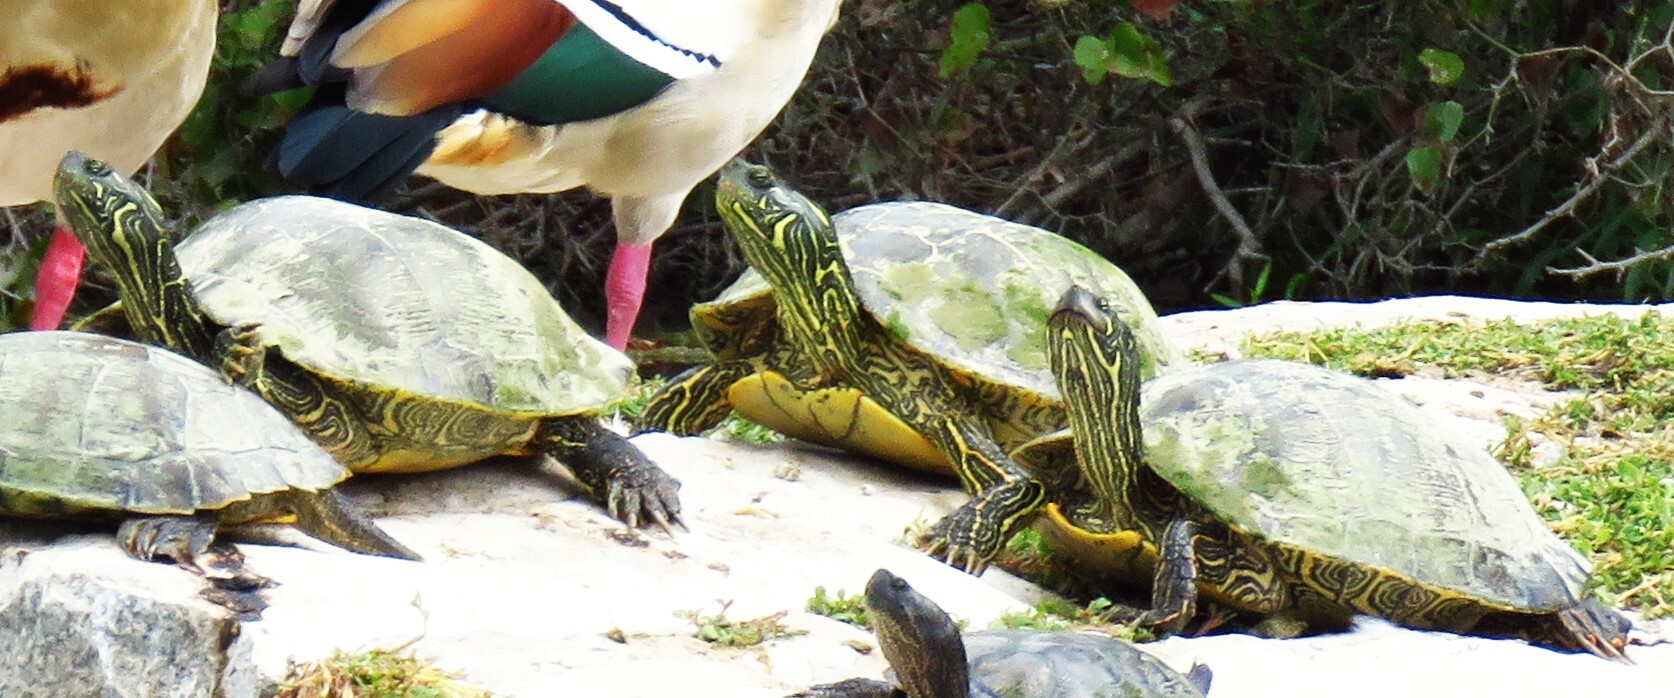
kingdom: Animalia
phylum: Chordata
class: Testudines
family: Emydidae
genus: Pseudemys
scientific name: Pseudemys texana
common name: Texas river cooter
